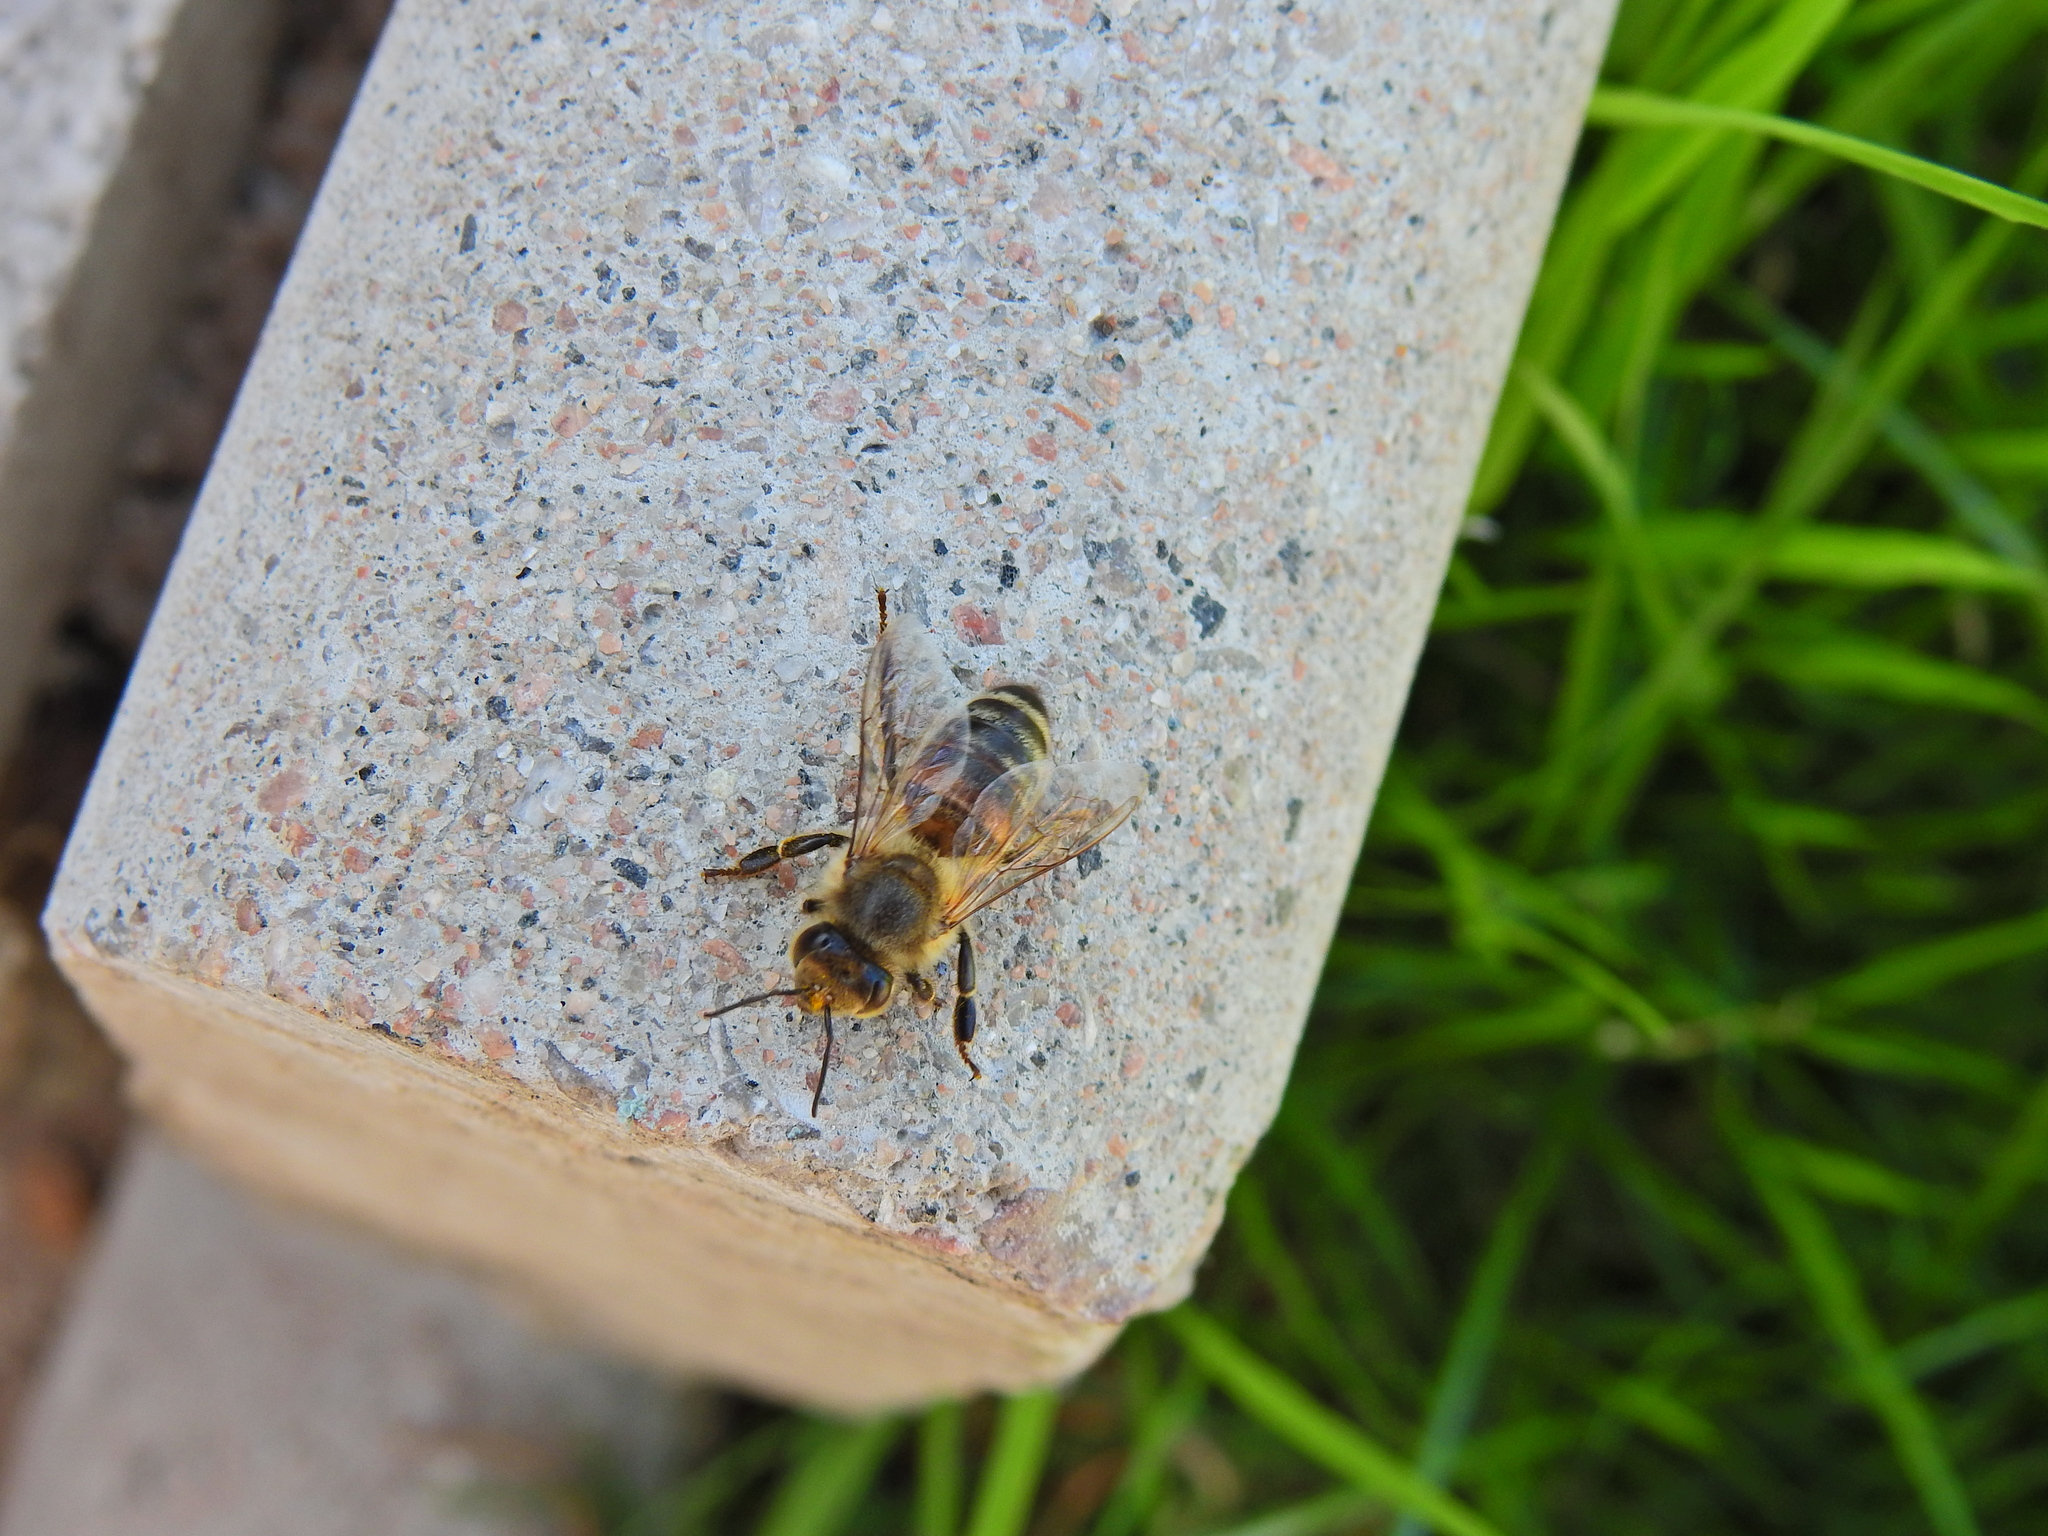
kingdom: Animalia
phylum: Arthropoda
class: Insecta
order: Hymenoptera
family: Apidae
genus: Apis
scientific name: Apis mellifera
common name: Honey bee
